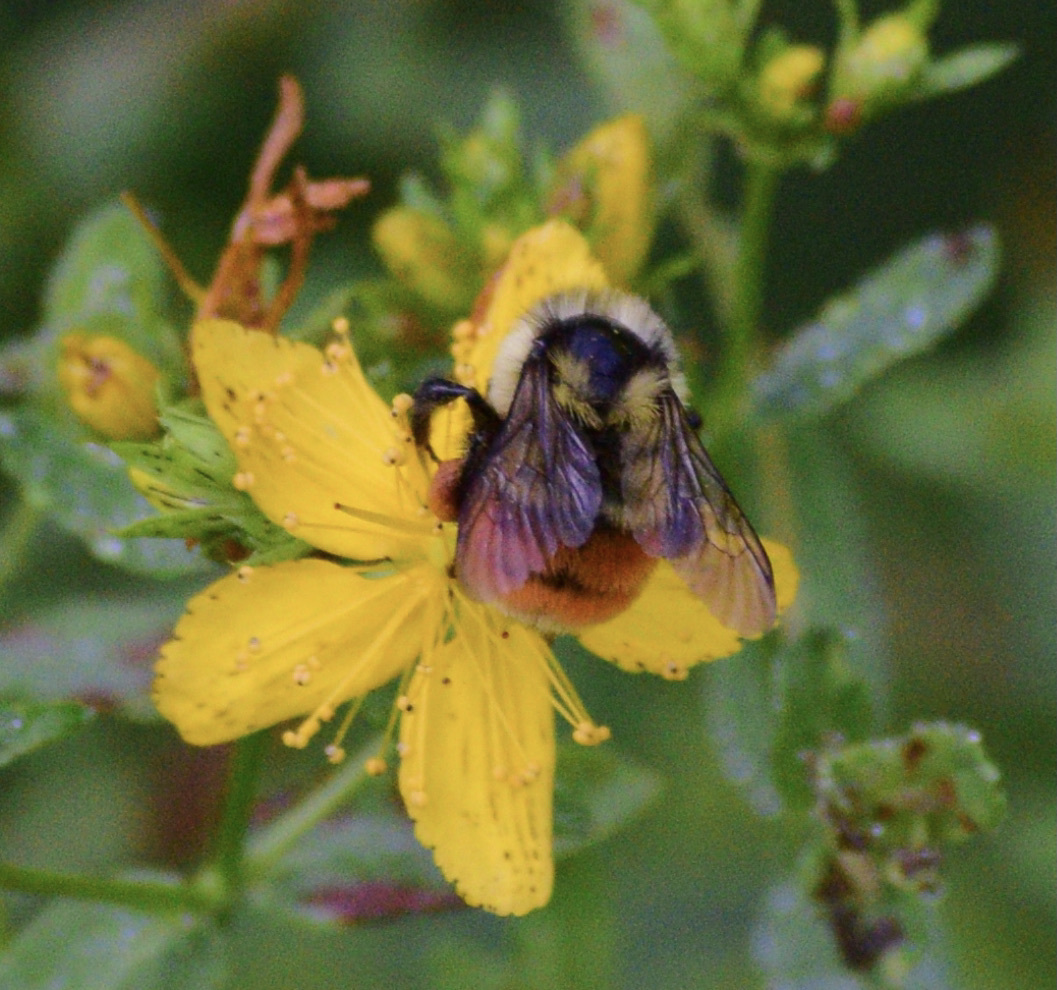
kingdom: Animalia
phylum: Arthropoda
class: Insecta
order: Hymenoptera
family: Apidae
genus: Bombus
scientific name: Bombus ternarius
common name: Tri-colored bumble bee
